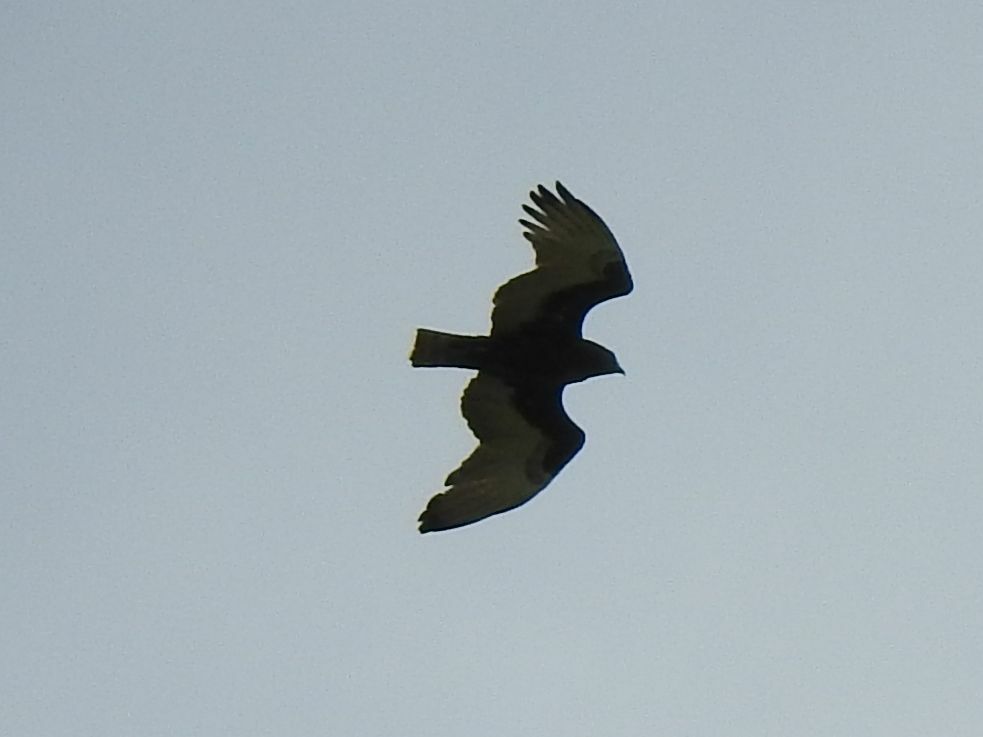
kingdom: Animalia
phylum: Chordata
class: Aves
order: Accipitriformes
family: Accipitridae
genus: Circaetus
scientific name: Circaetus cinereus
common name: Brown snake eagle
